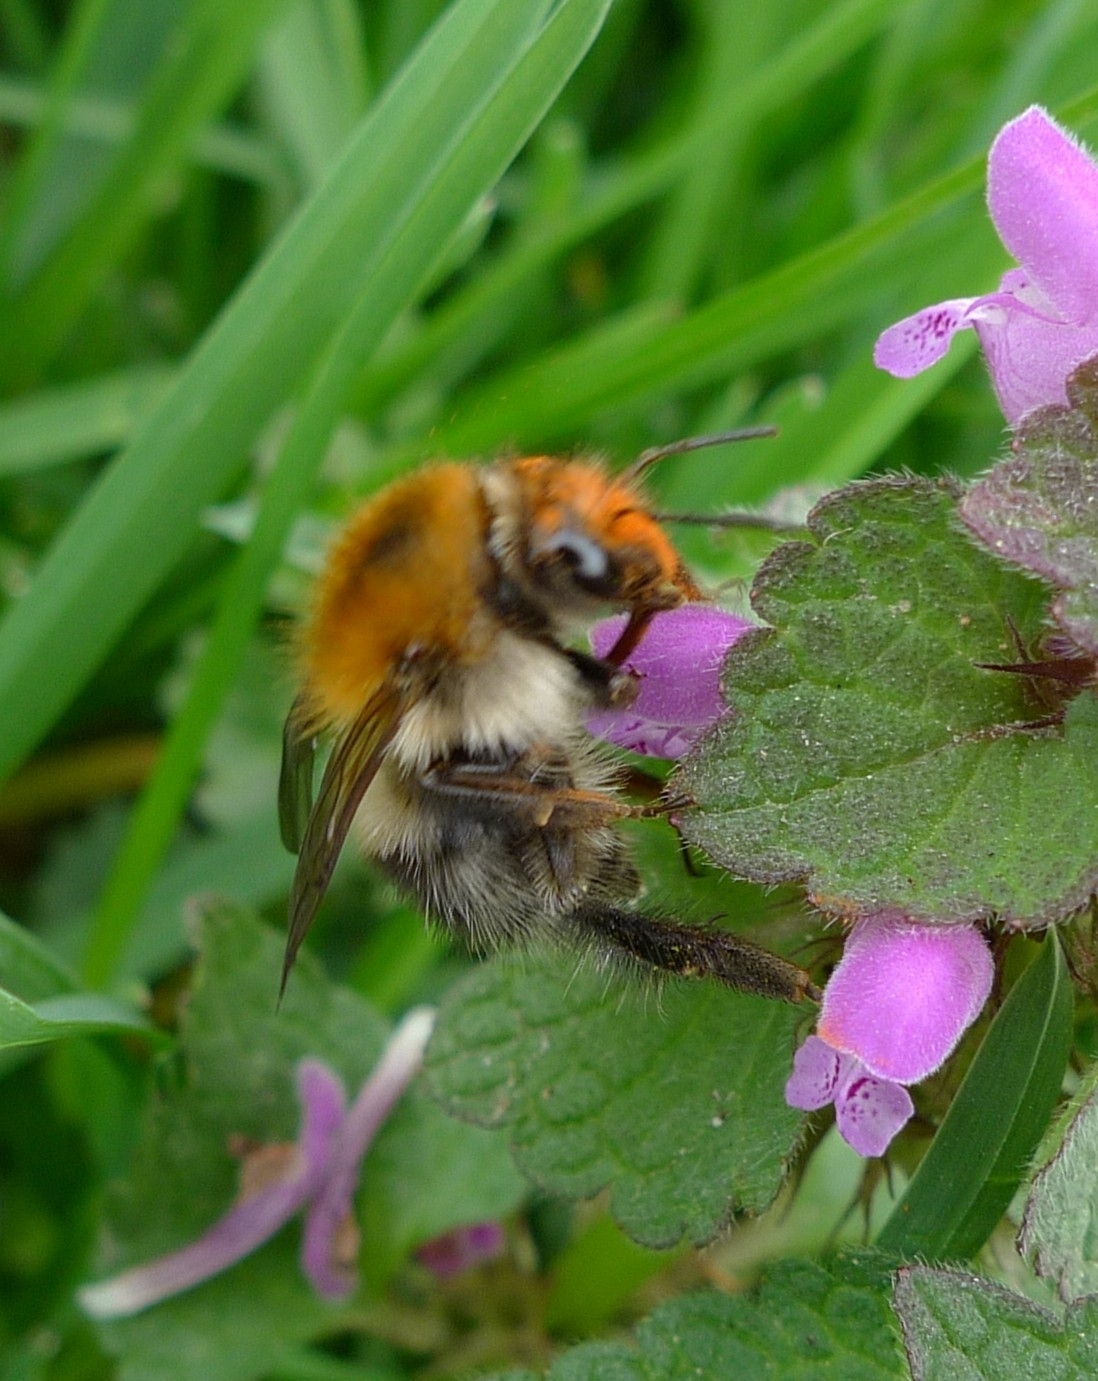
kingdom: Animalia
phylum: Arthropoda
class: Insecta
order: Hymenoptera
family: Apidae
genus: Bombus
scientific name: Bombus pascuorum
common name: Common carder bee
